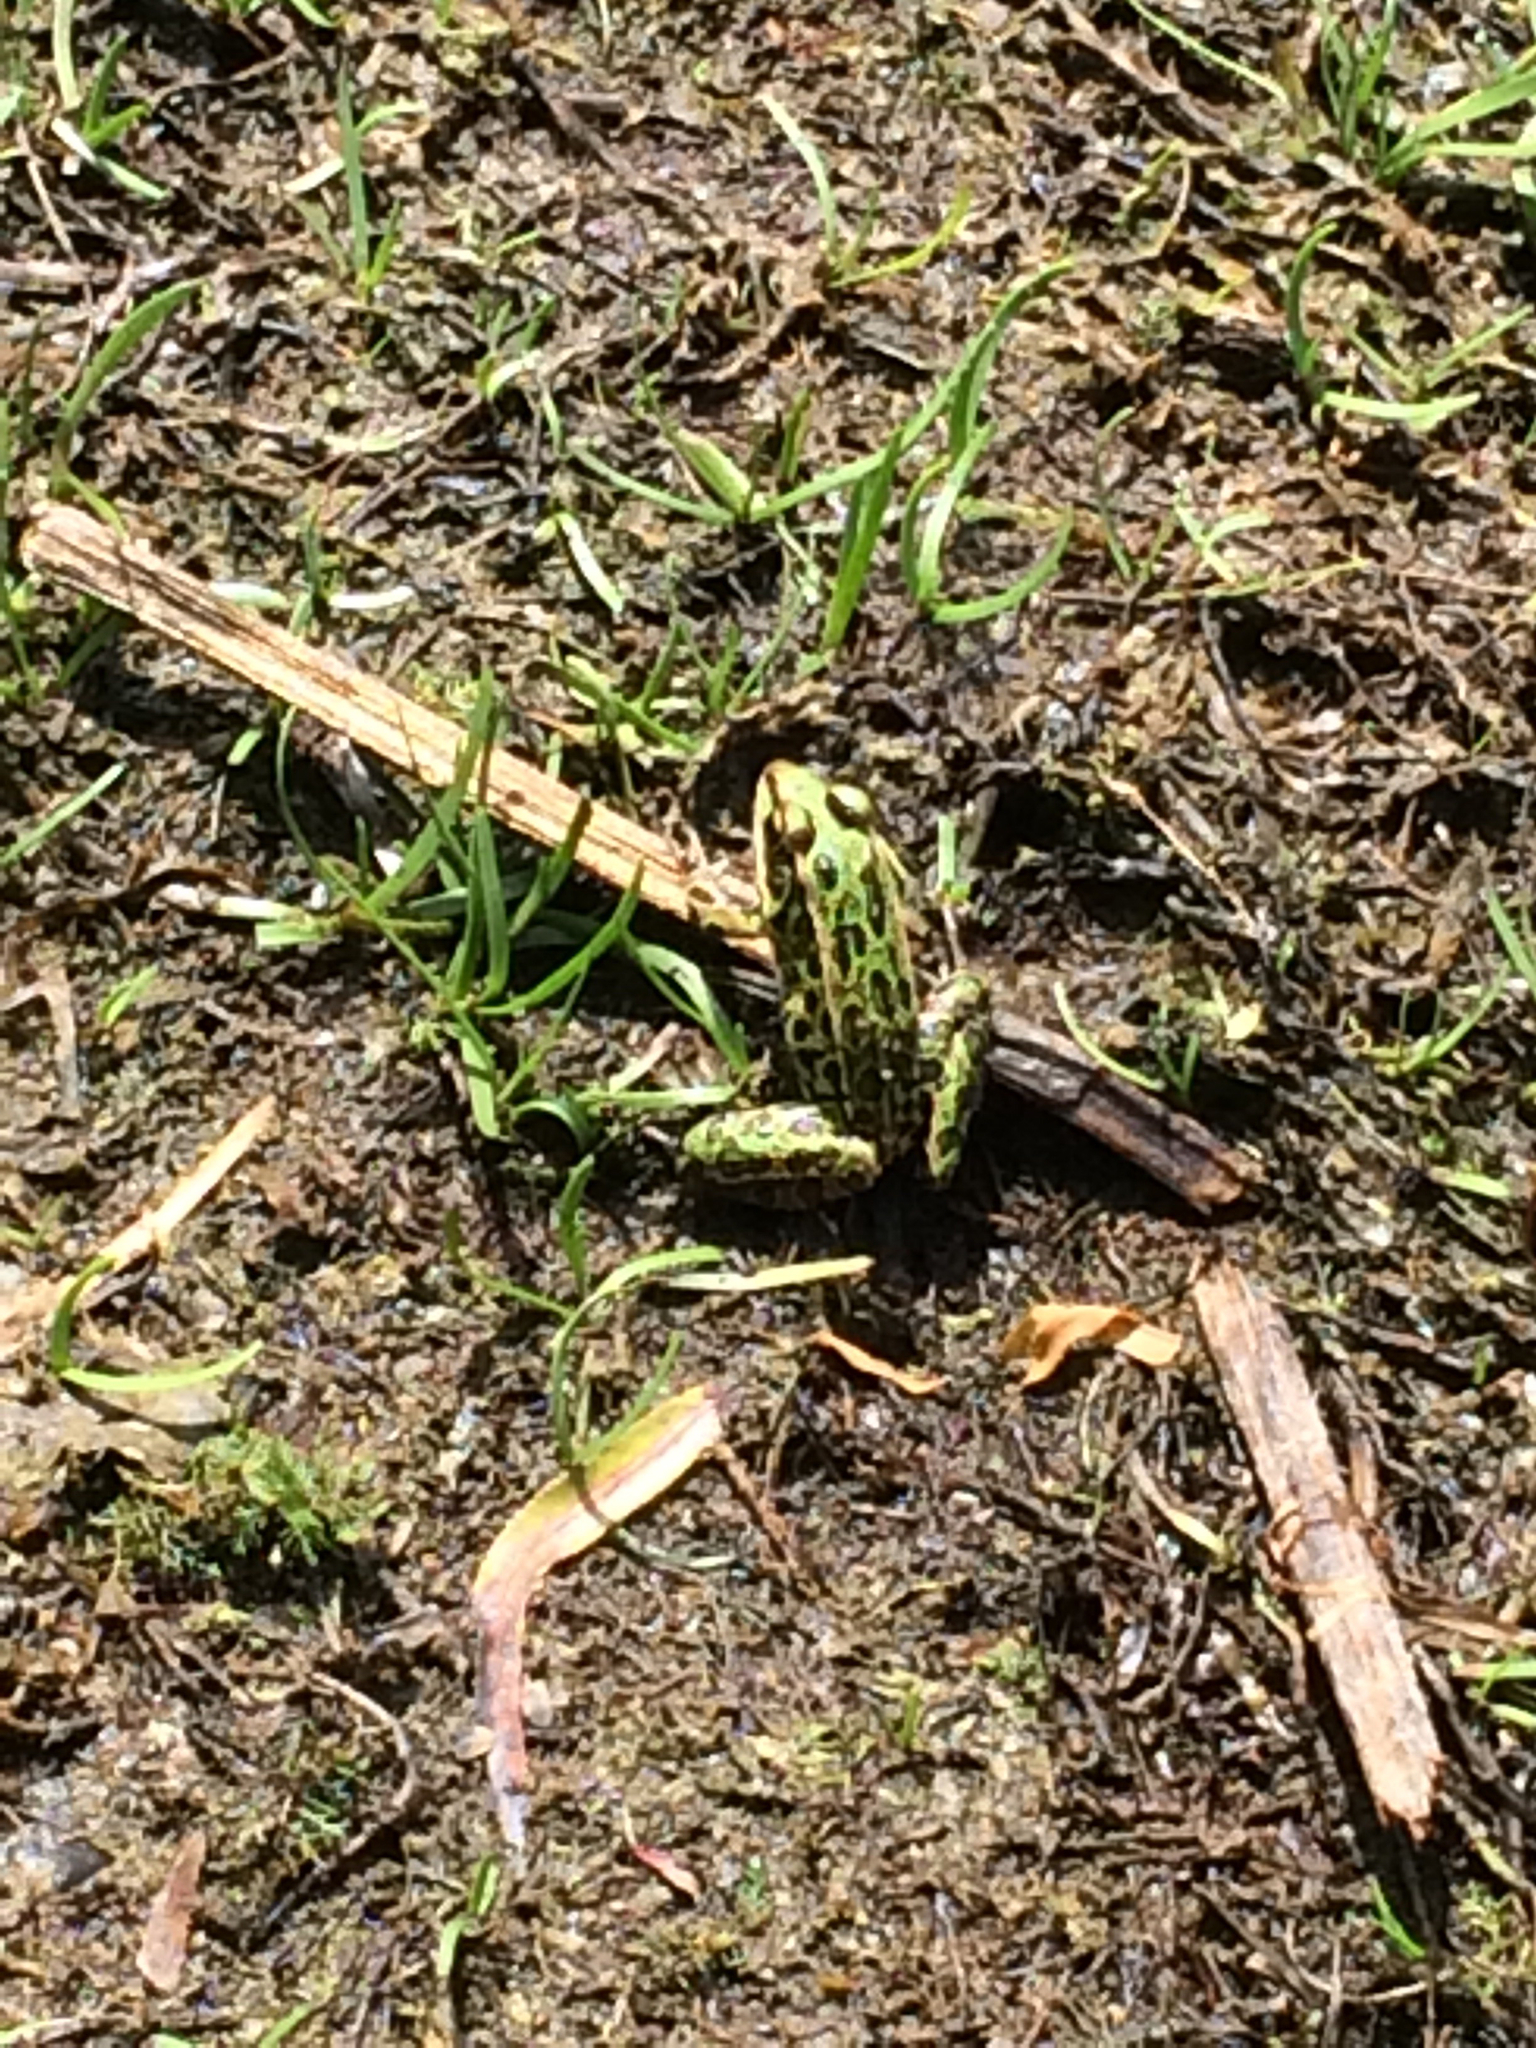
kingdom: Animalia
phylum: Chordata
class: Amphibia
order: Anura
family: Ranidae
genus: Lithobates
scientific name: Lithobates pipiens
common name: Northern leopard frog
